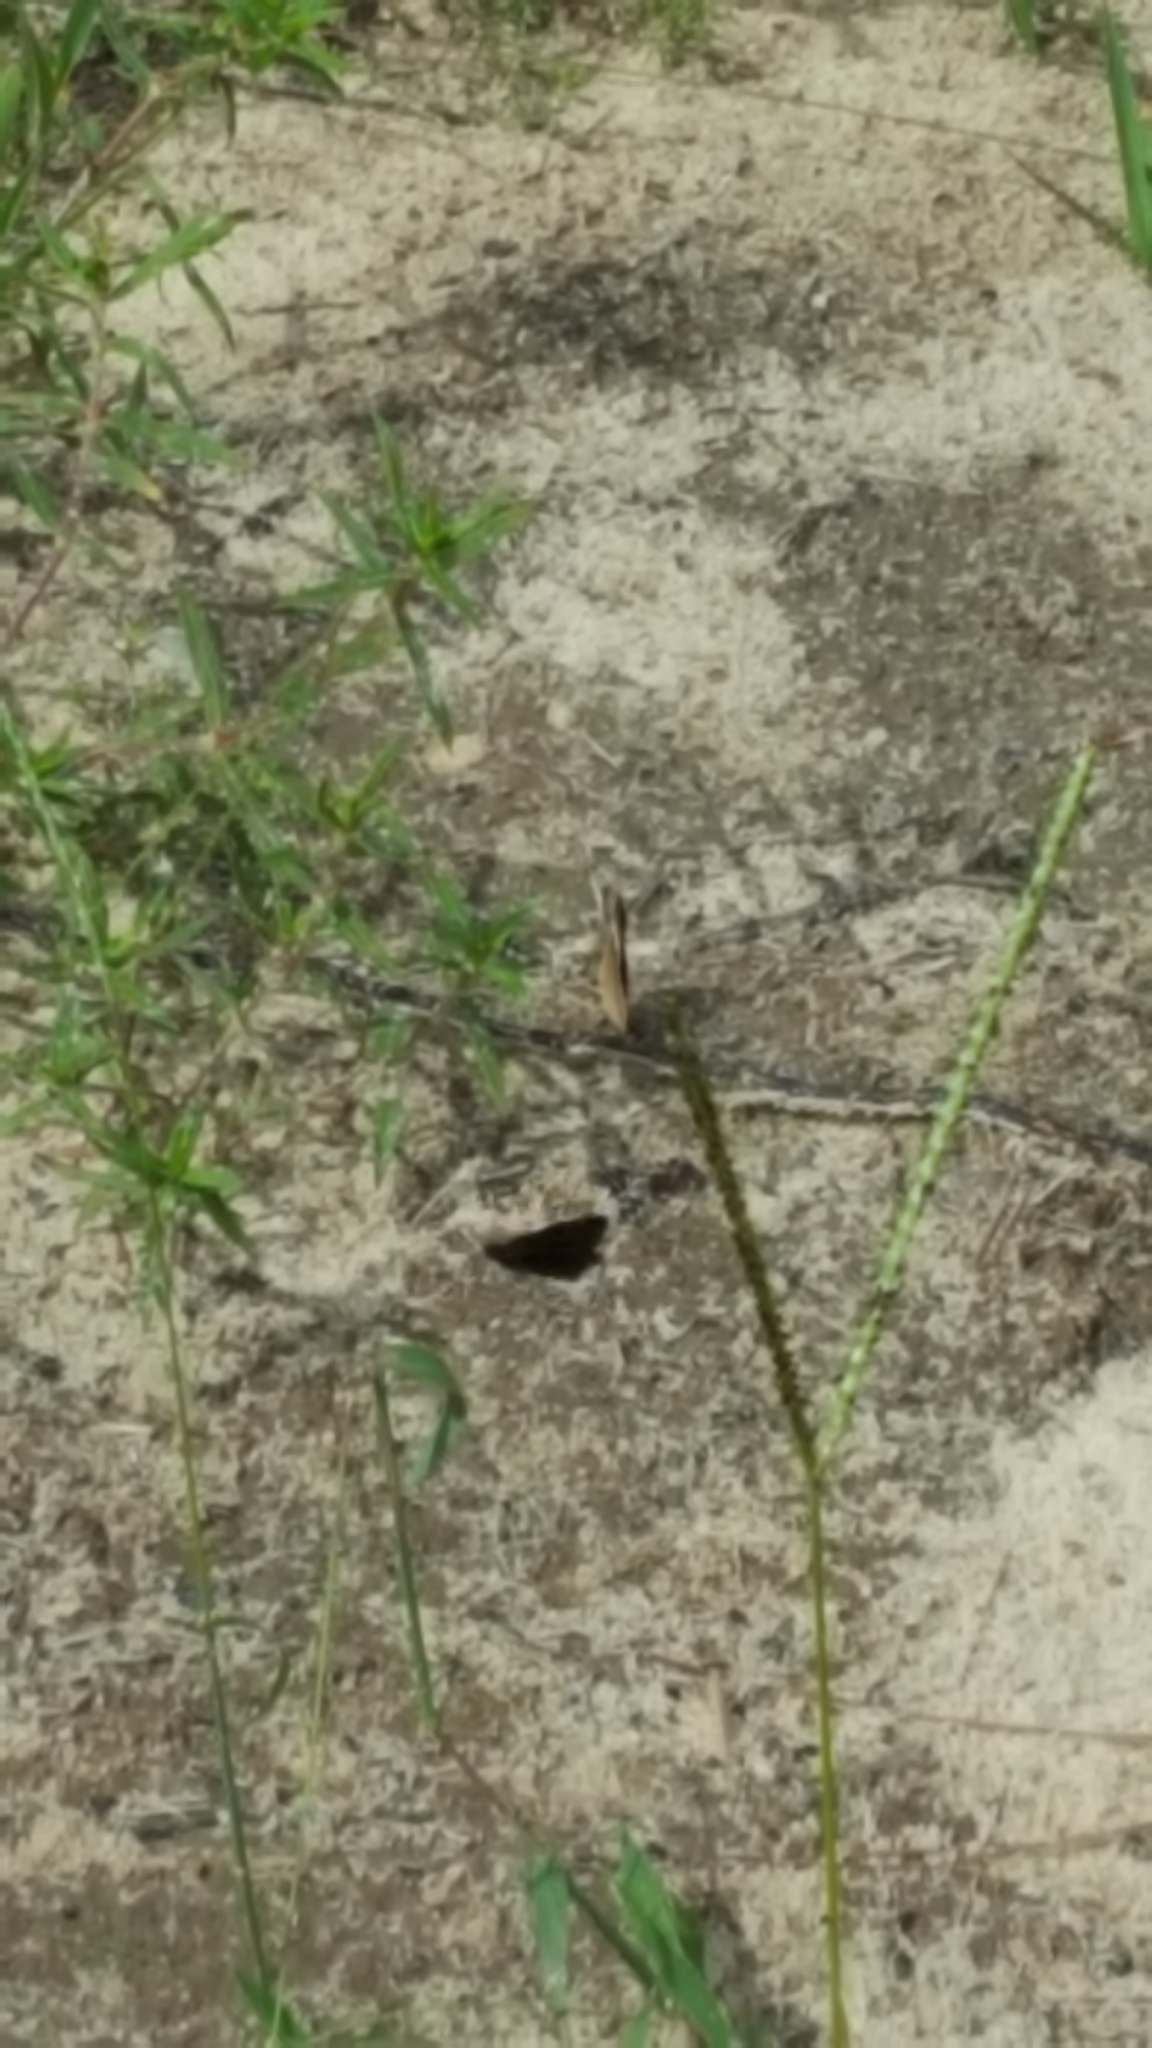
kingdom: Animalia
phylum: Arthropoda
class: Insecta
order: Lepidoptera
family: Nymphalidae
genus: Junonia
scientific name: Junonia coenia
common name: Common buckeye
